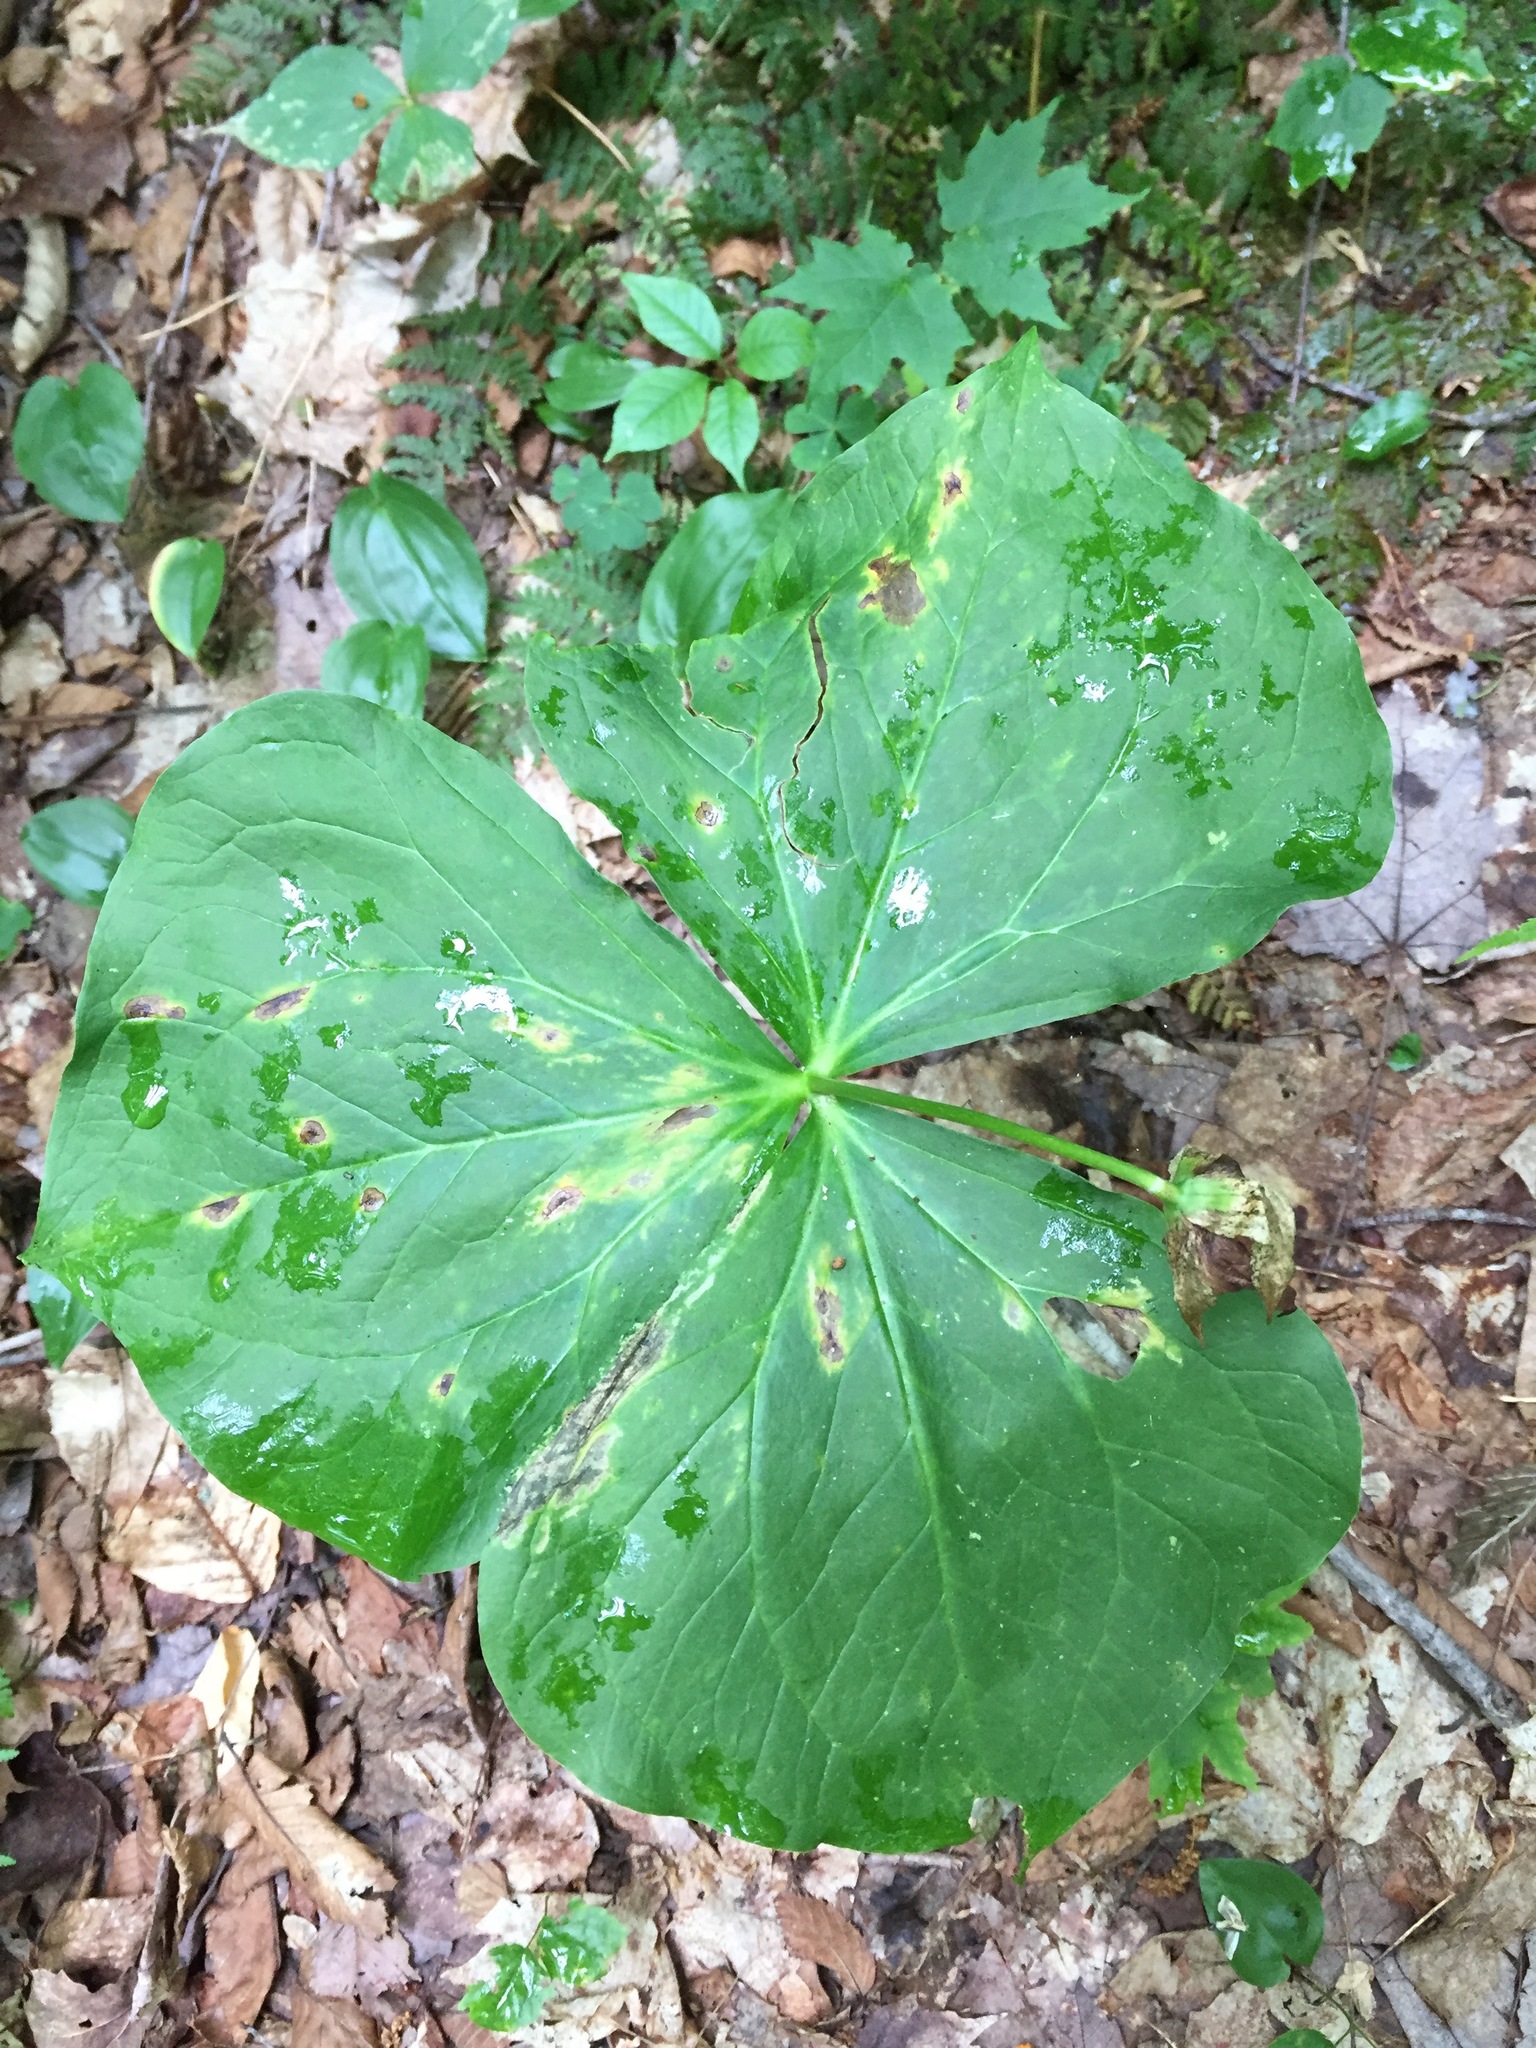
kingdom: Plantae
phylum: Tracheophyta
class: Liliopsida
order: Liliales
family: Melanthiaceae
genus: Trillium
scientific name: Trillium erectum
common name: Purple trillium
